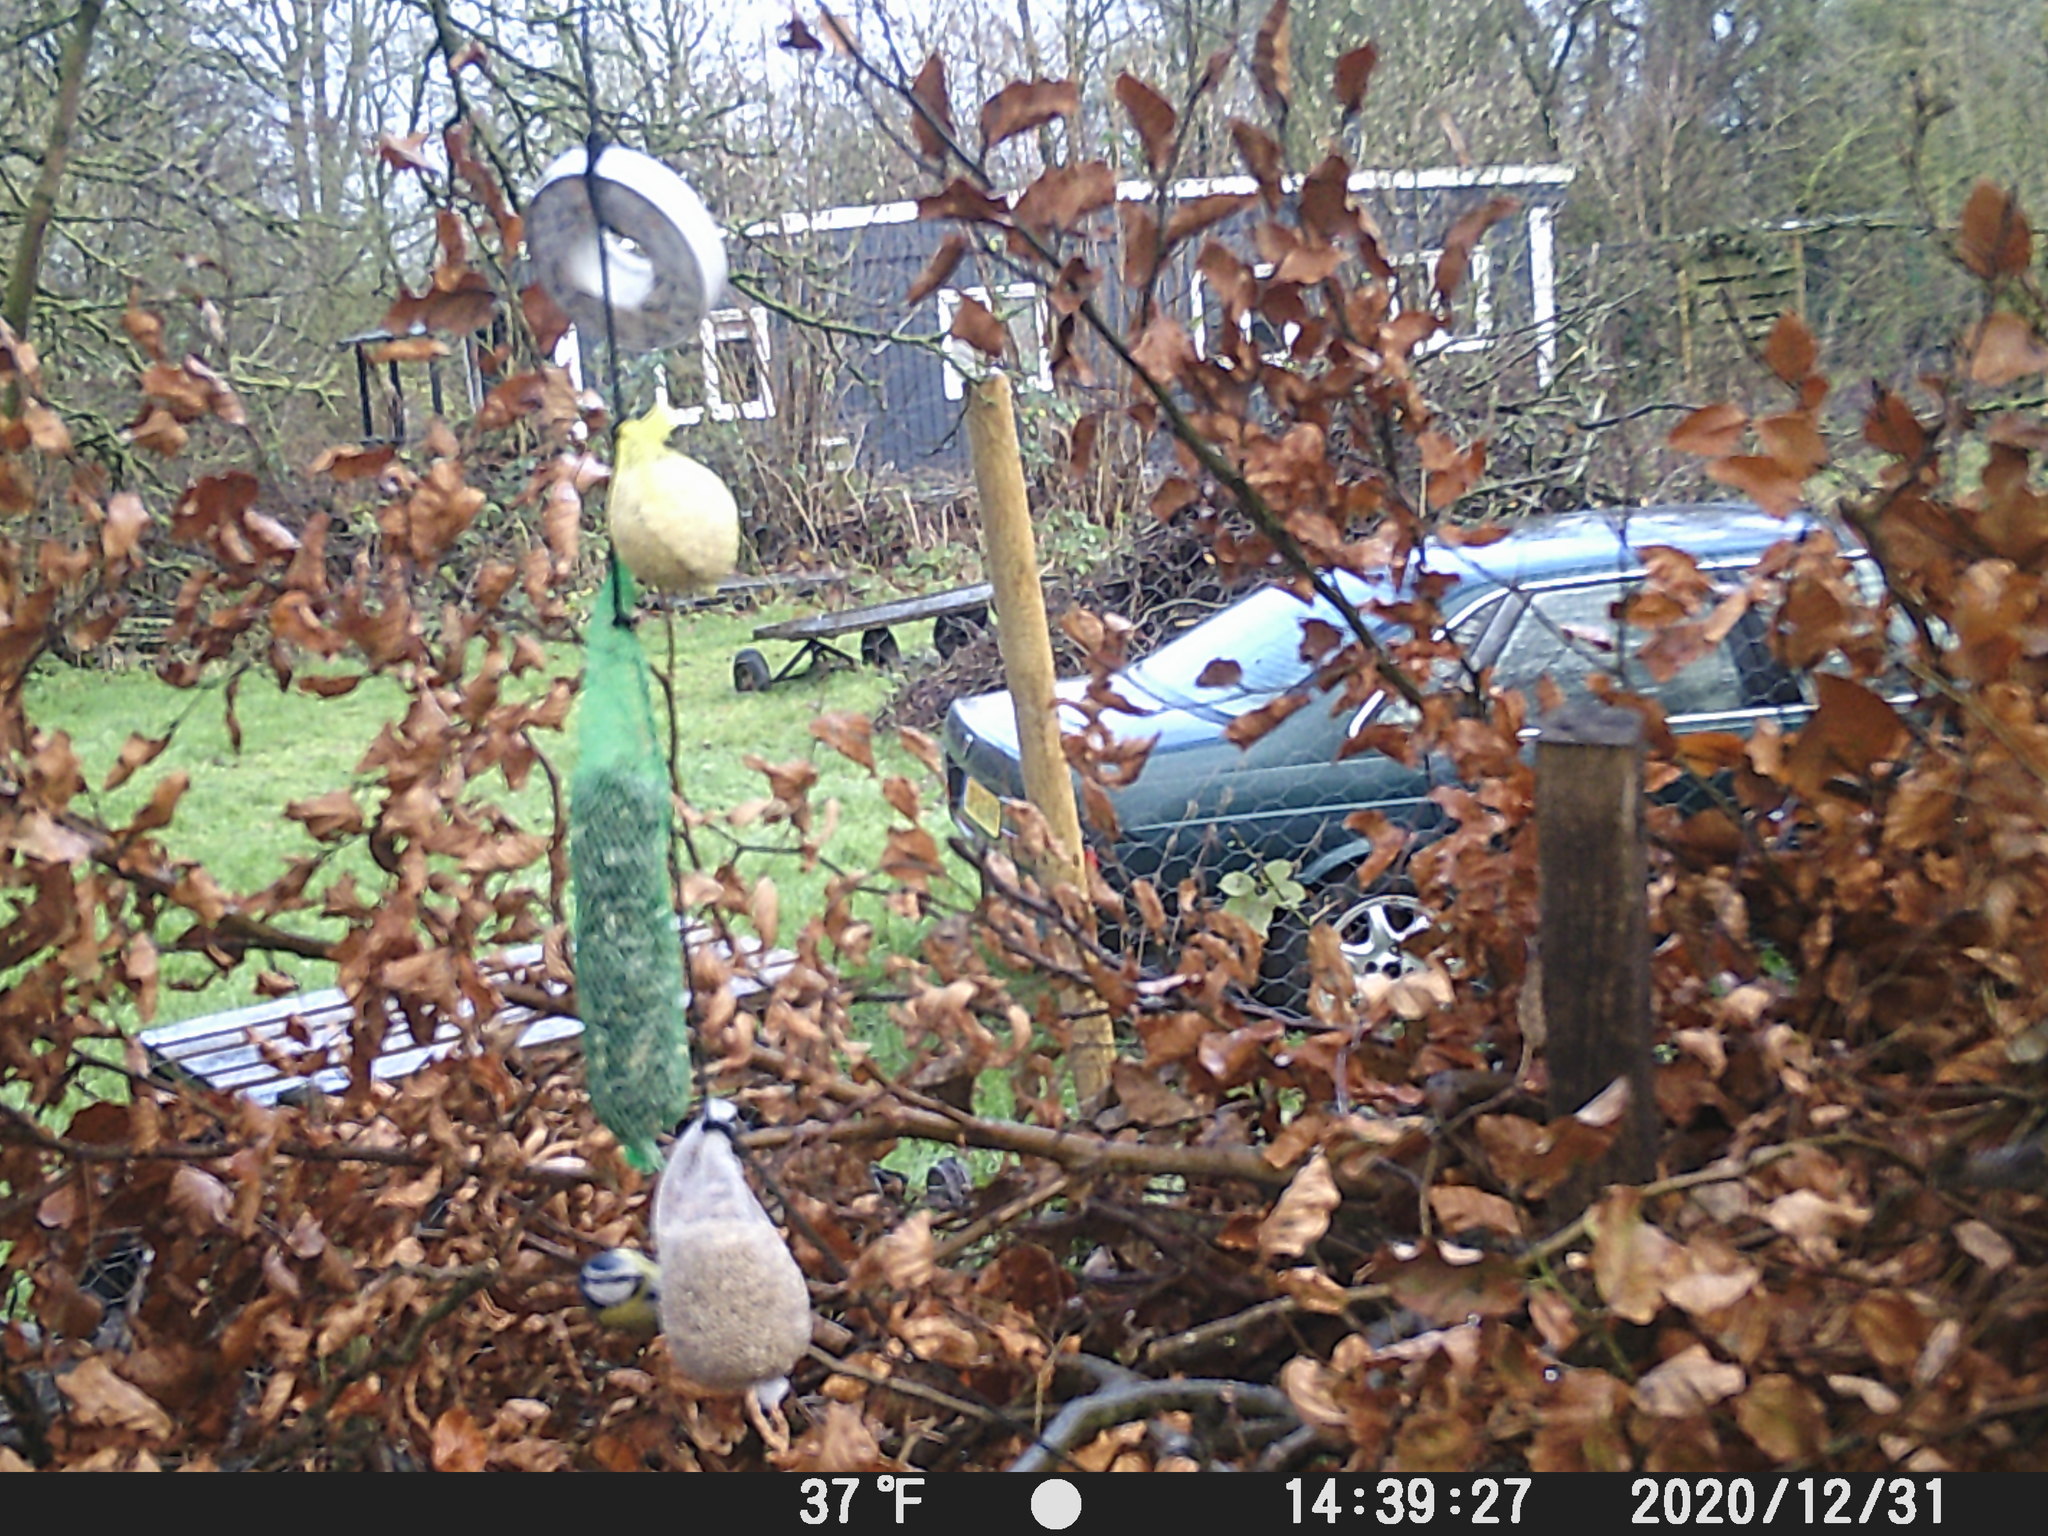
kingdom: Animalia
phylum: Chordata
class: Aves
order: Passeriformes
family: Paridae
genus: Cyanistes
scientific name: Cyanistes caeruleus
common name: Eurasian blue tit
